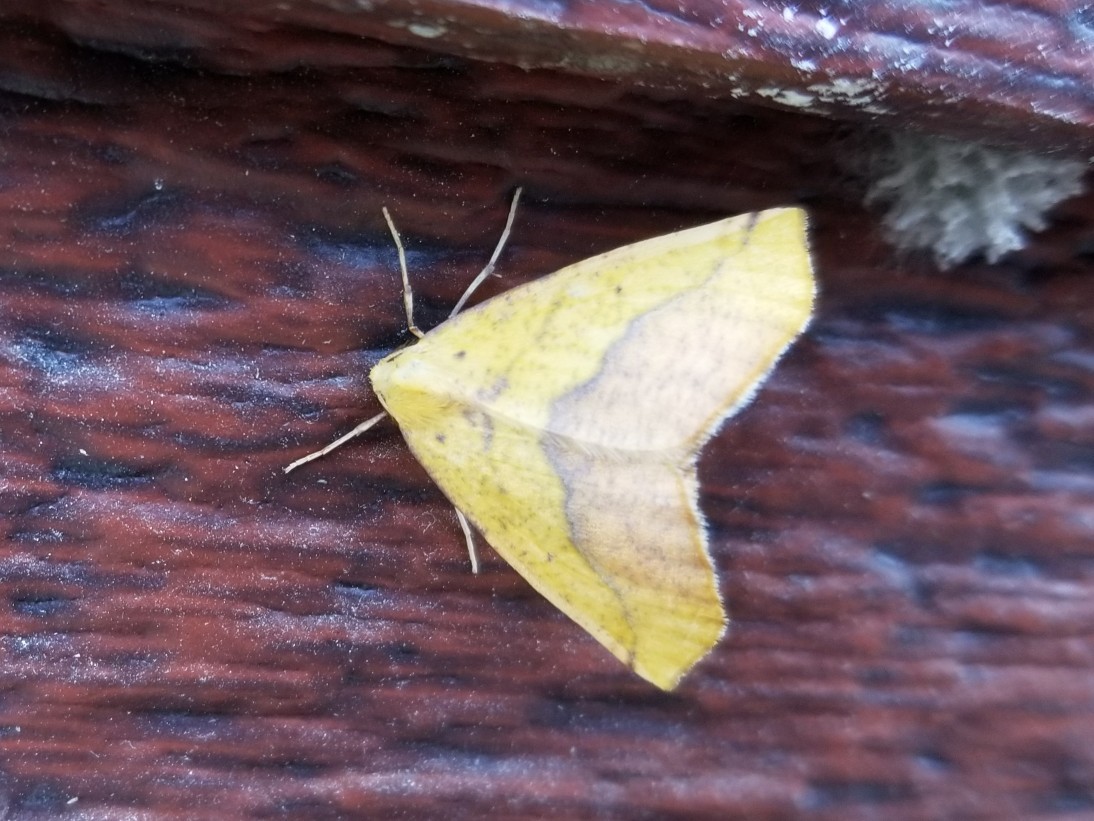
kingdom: Animalia
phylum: Arthropoda
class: Insecta
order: Lepidoptera
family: Geometridae
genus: Sicya
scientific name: Sicya macularia
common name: Sharp-lined yellow
